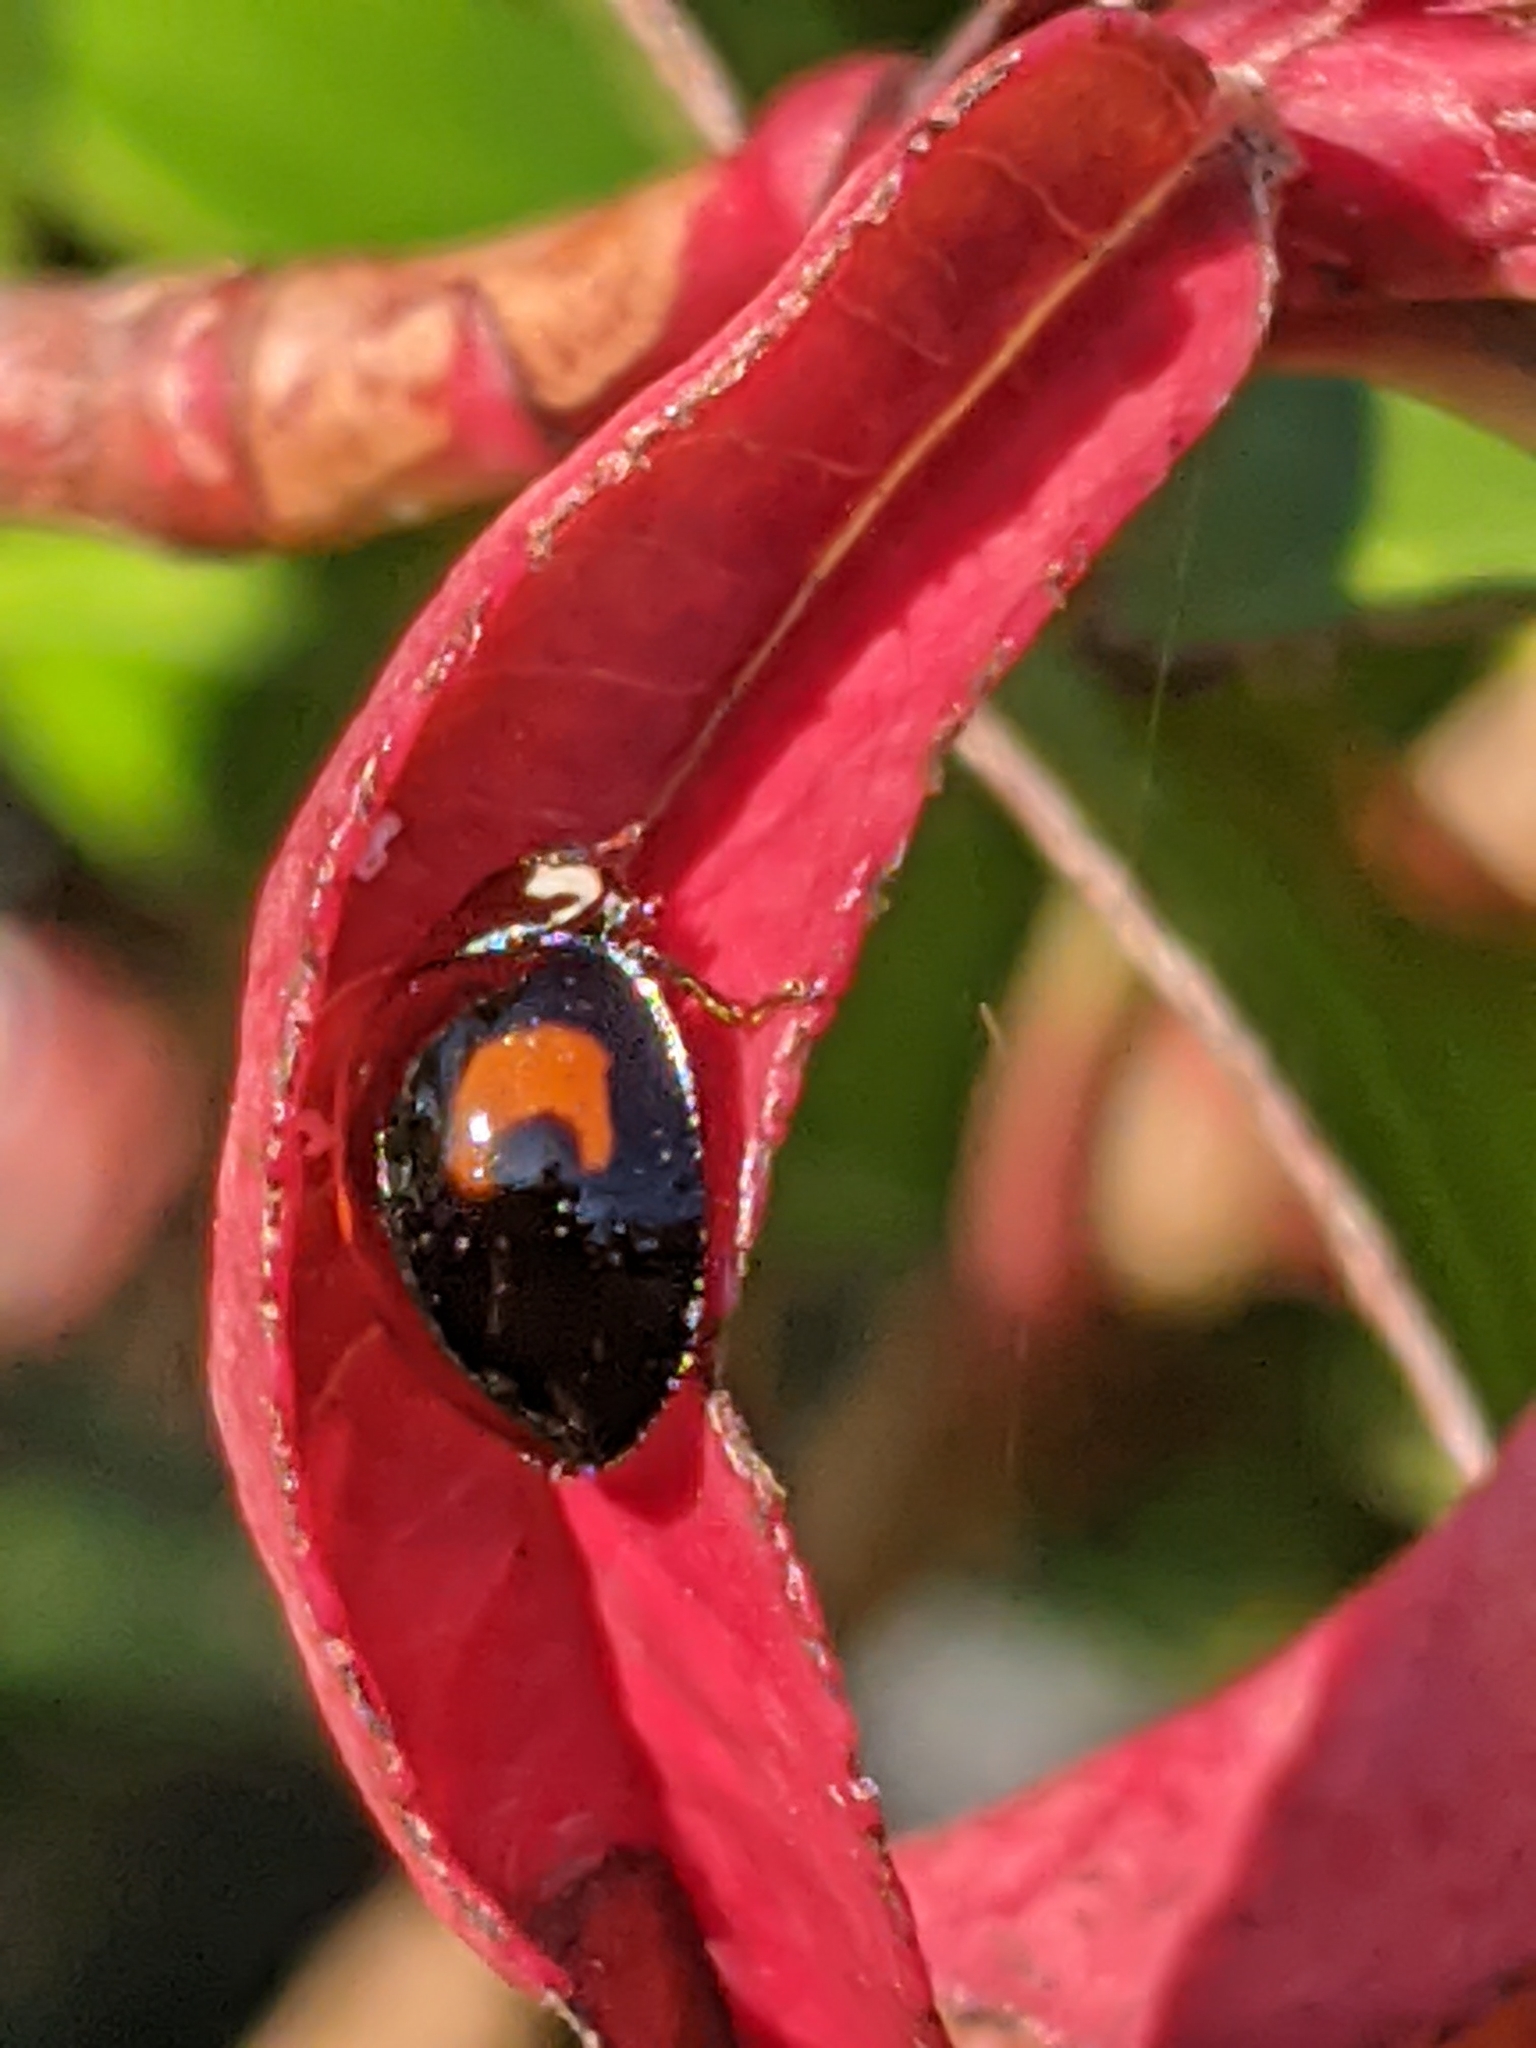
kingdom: Animalia
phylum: Arthropoda
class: Insecta
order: Coleoptera
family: Coccinellidae
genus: Harmonia
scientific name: Harmonia axyridis
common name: Harlequin ladybird
